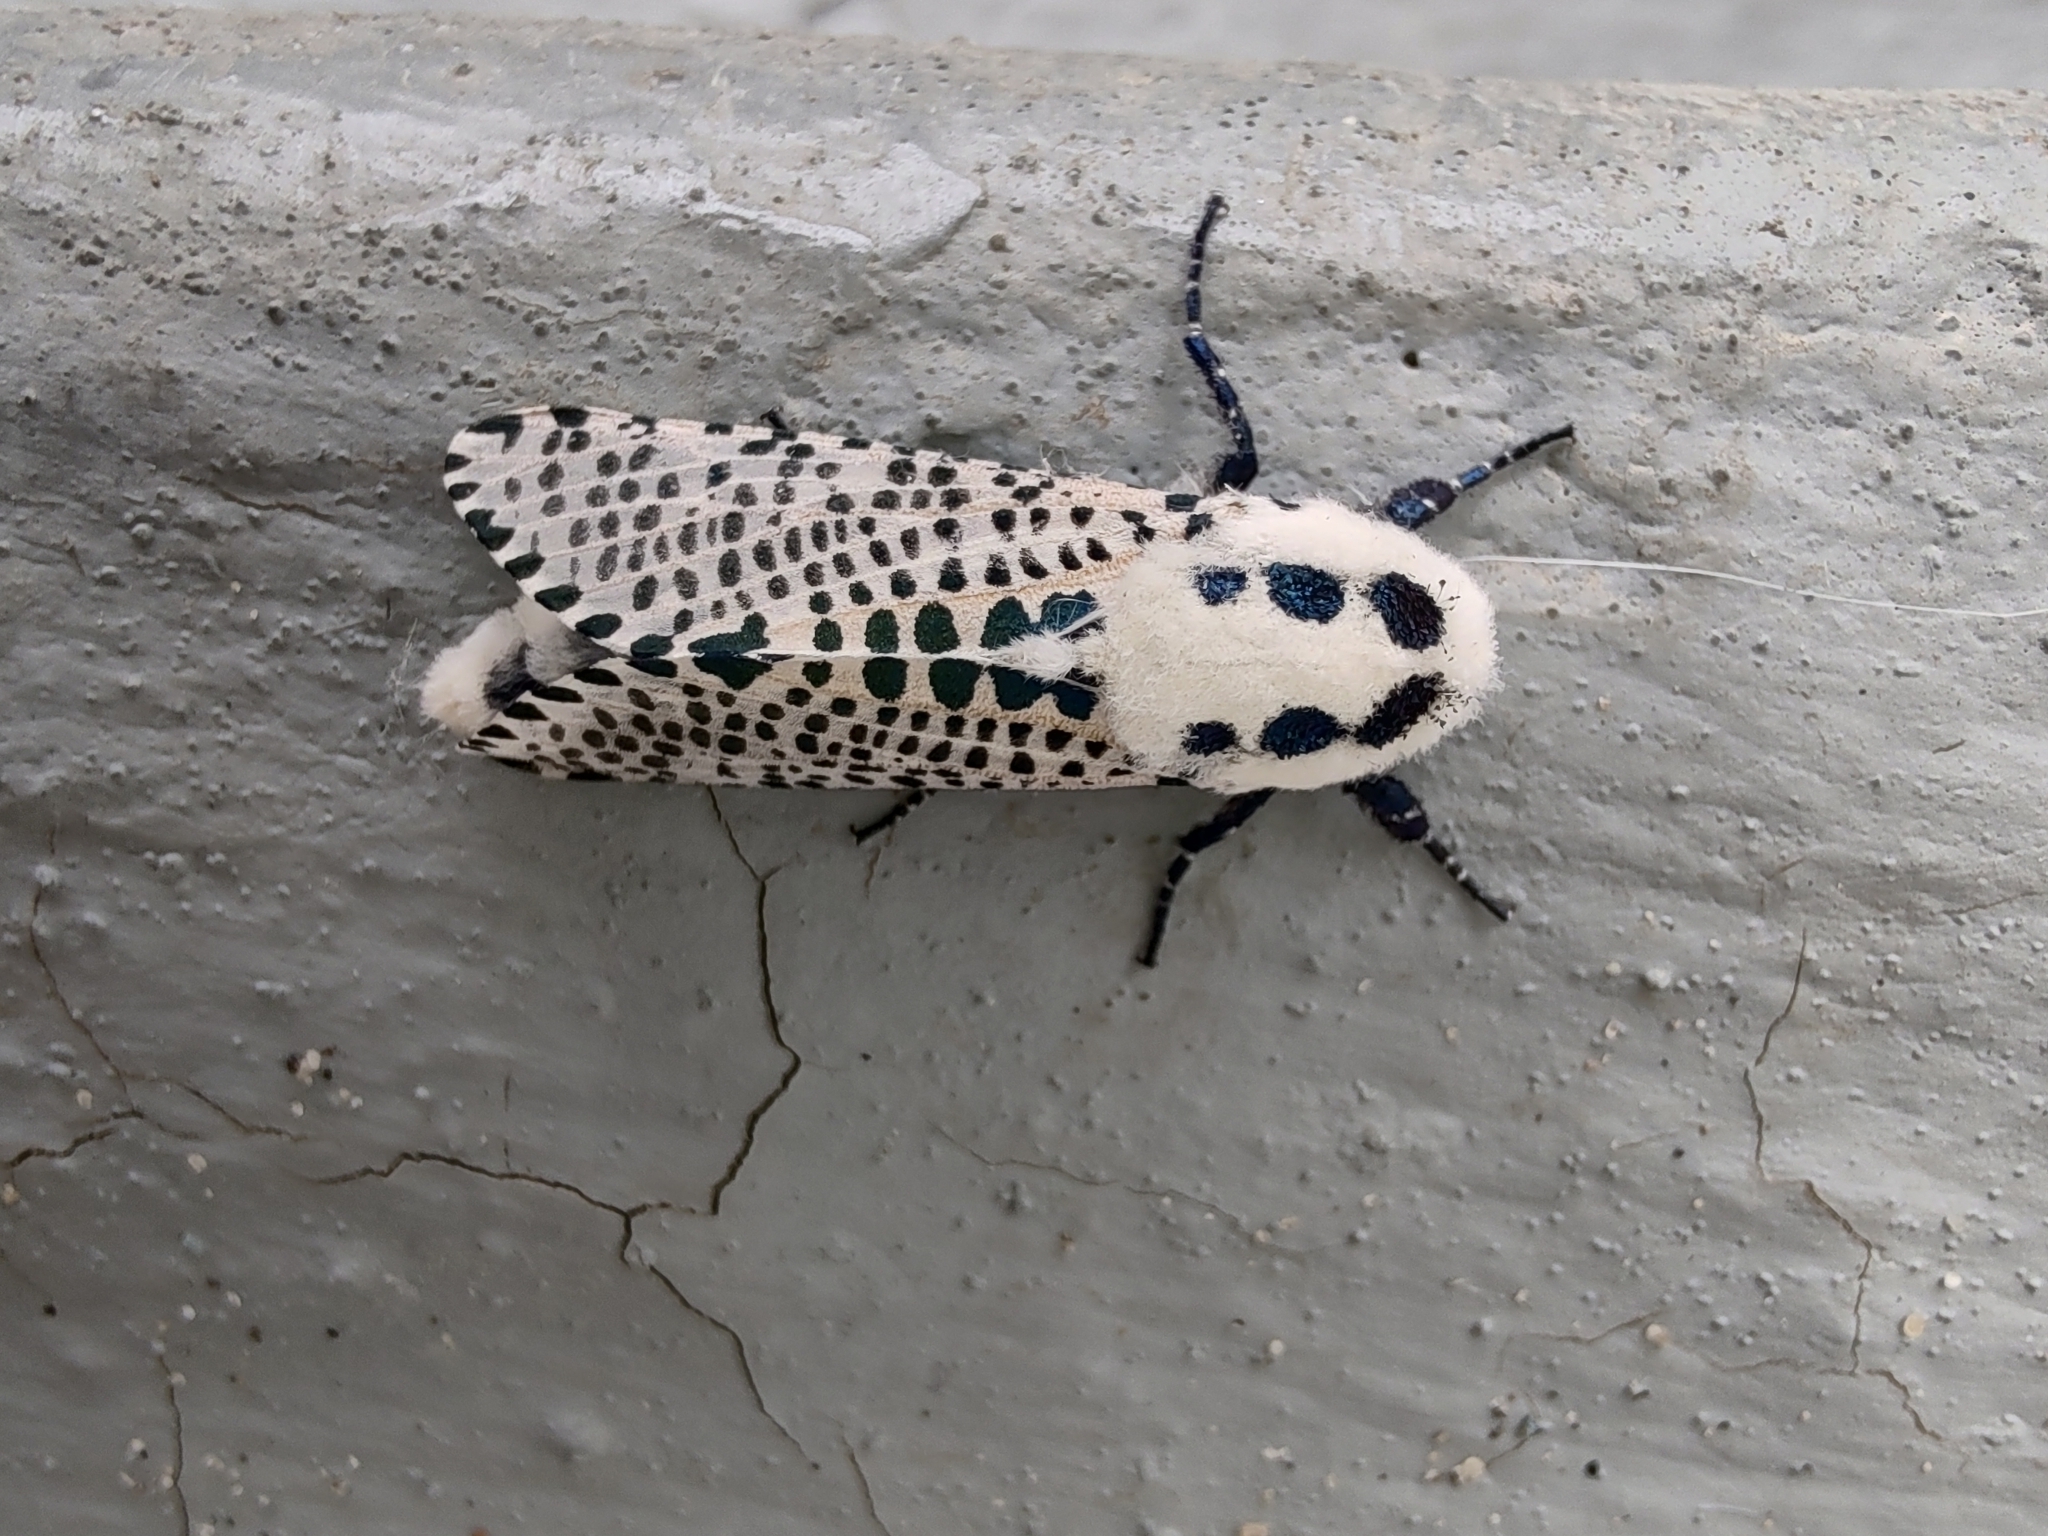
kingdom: Animalia
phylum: Arthropoda
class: Insecta
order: Lepidoptera
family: Cossidae
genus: Zeuzera
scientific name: Zeuzera pyrina
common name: Leopard moth
